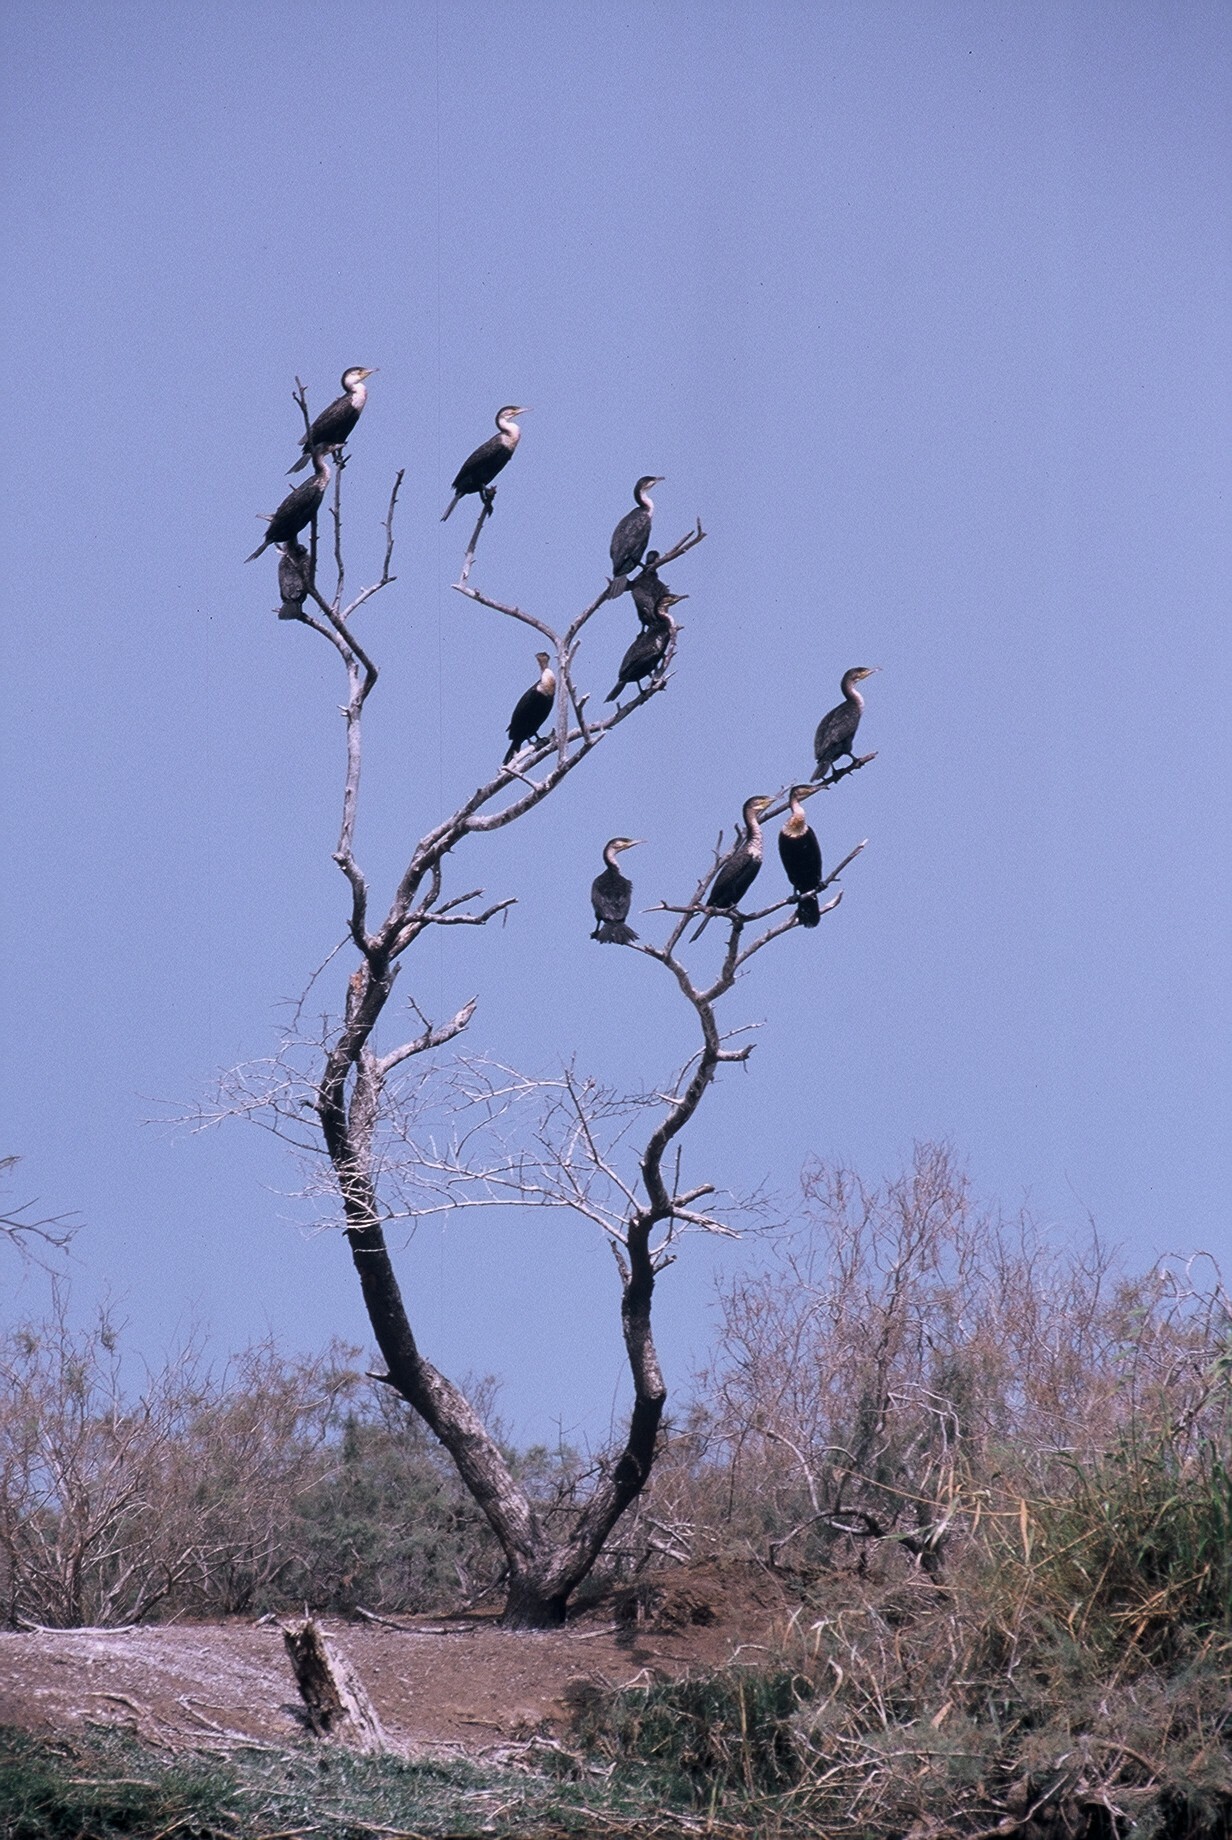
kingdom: Animalia
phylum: Chordata
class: Aves
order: Suliformes
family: Phalacrocoracidae
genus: Phalacrocorax
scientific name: Phalacrocorax carbo
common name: Great cormorant
